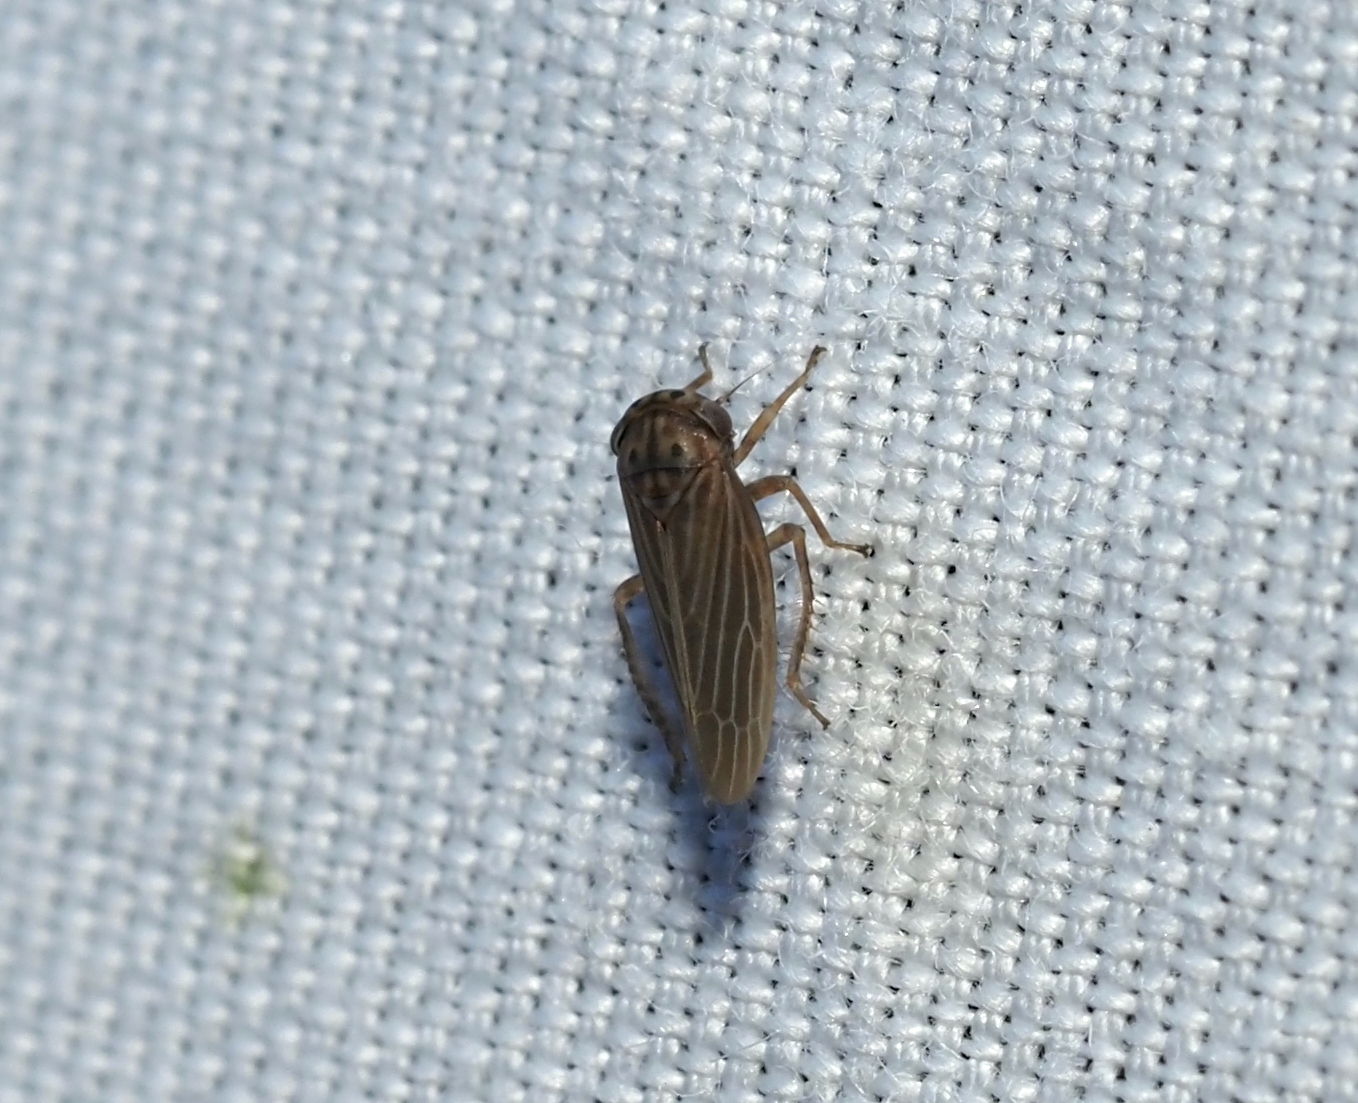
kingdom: Animalia
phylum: Arthropoda
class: Insecta
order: Hemiptera
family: Cicadellidae
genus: Agallia
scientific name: Agallia constricta
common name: The constricted leafhopper
